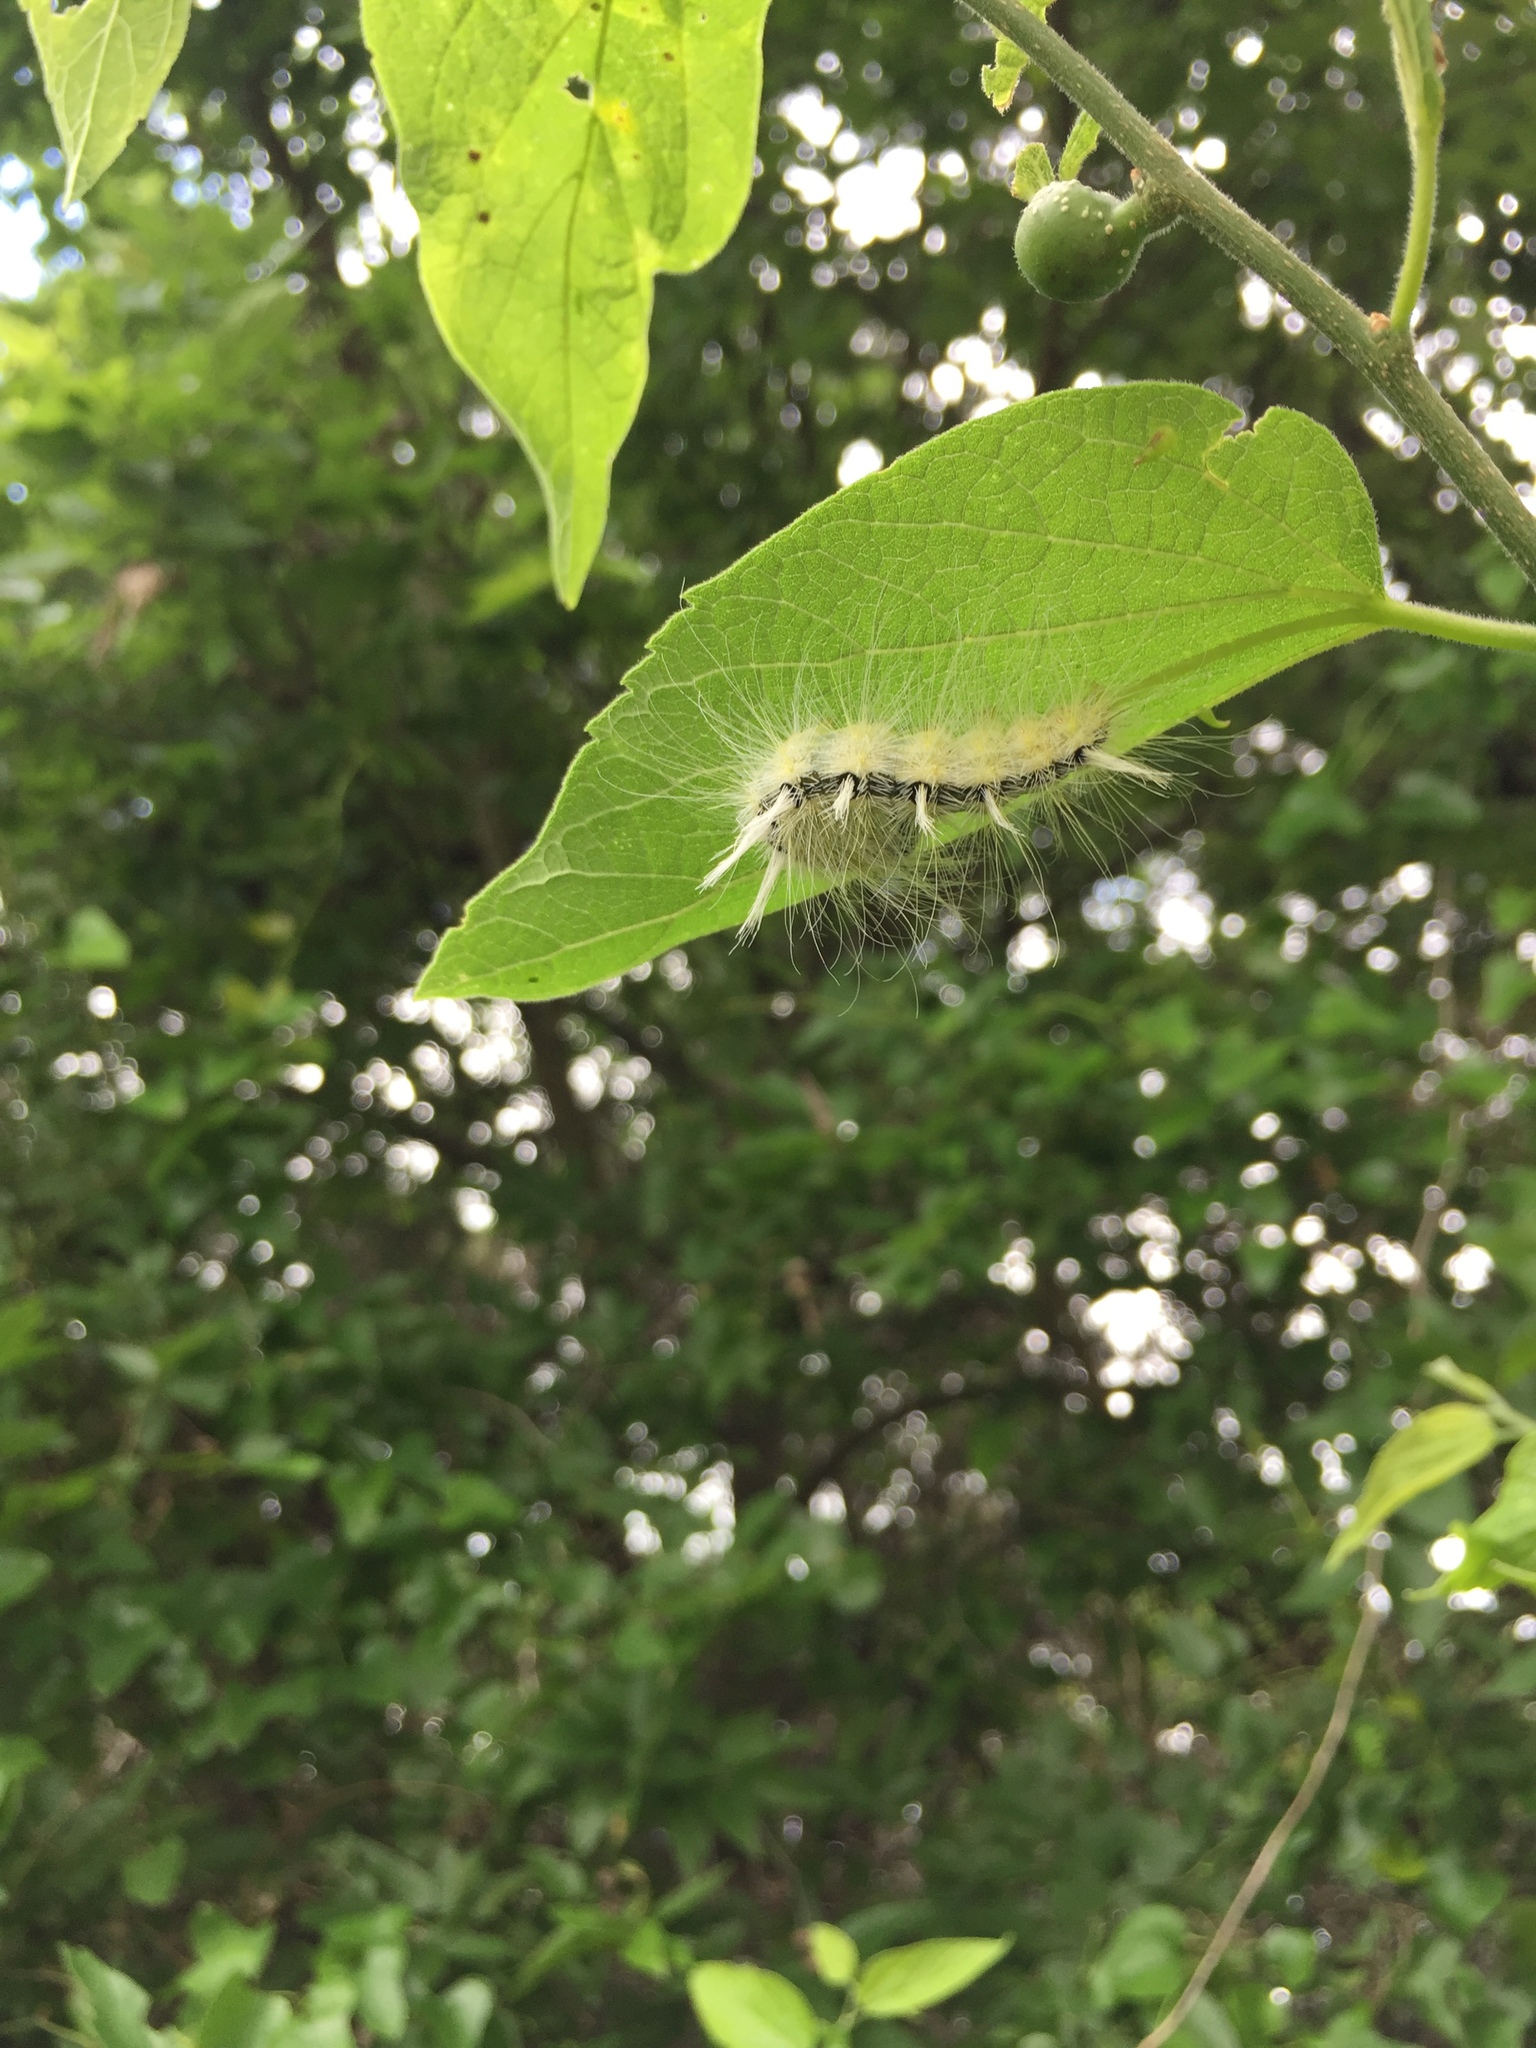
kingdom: Animalia
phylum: Arthropoda
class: Insecta
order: Lepidoptera
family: Noctuidae
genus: Acronicta
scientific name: Acronicta rubricoma
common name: Hackberry dagger
